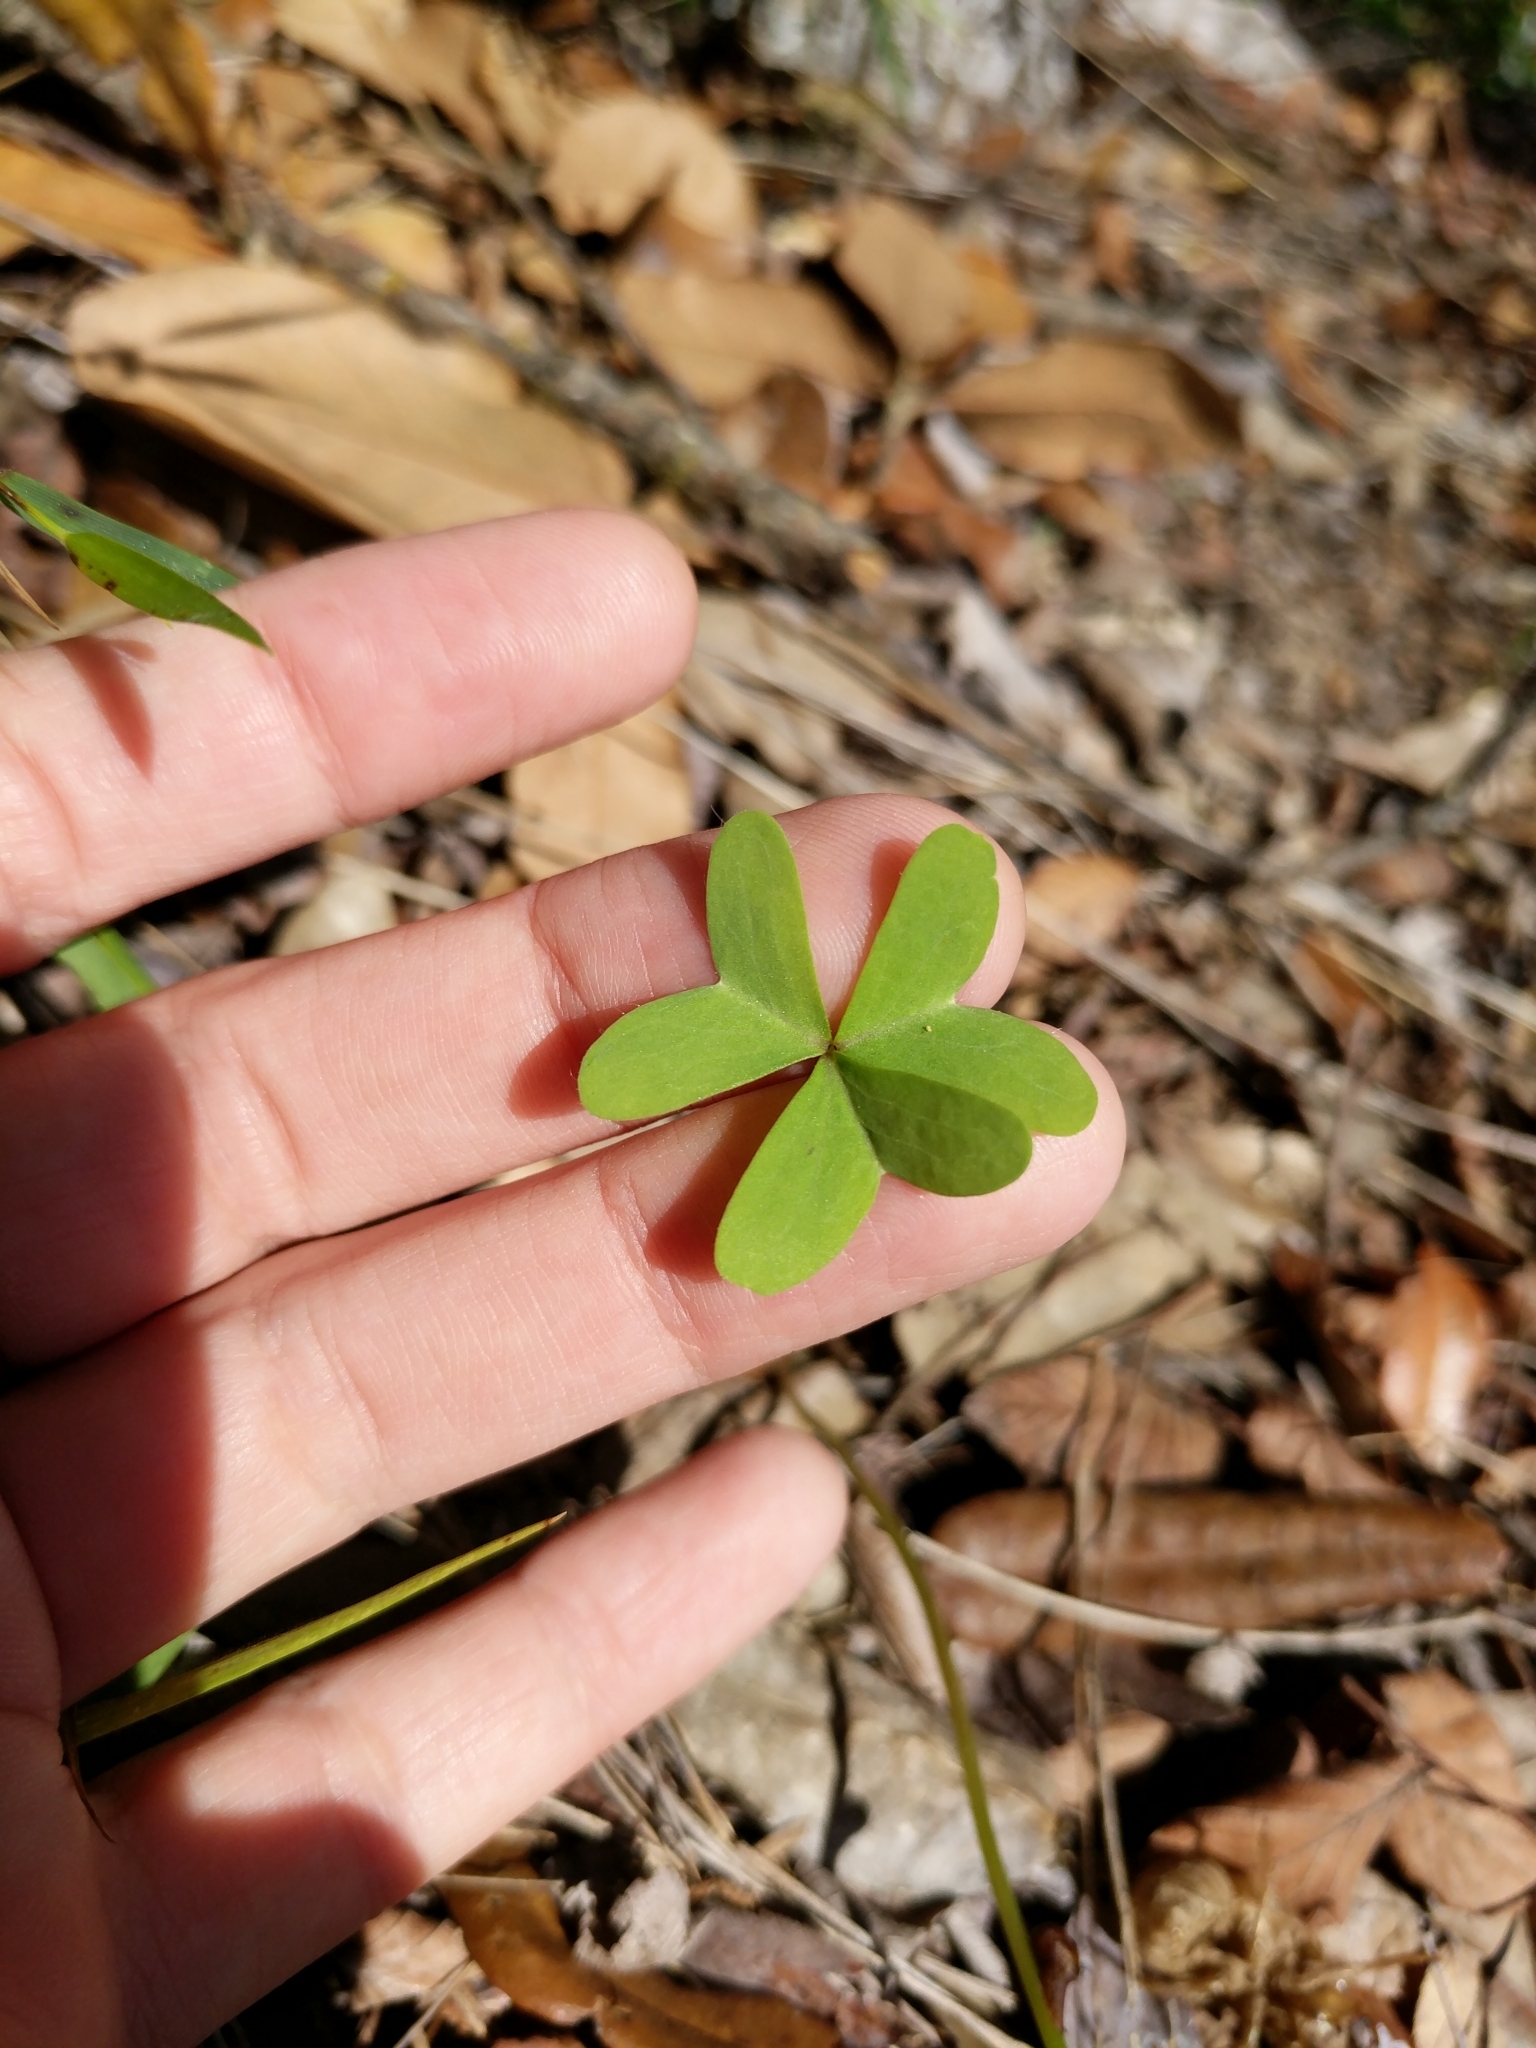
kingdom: Plantae
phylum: Tracheophyta
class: Magnoliopsida
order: Oxalidales
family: Oxalidaceae
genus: Oxalis
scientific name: Oxalis drummondii
